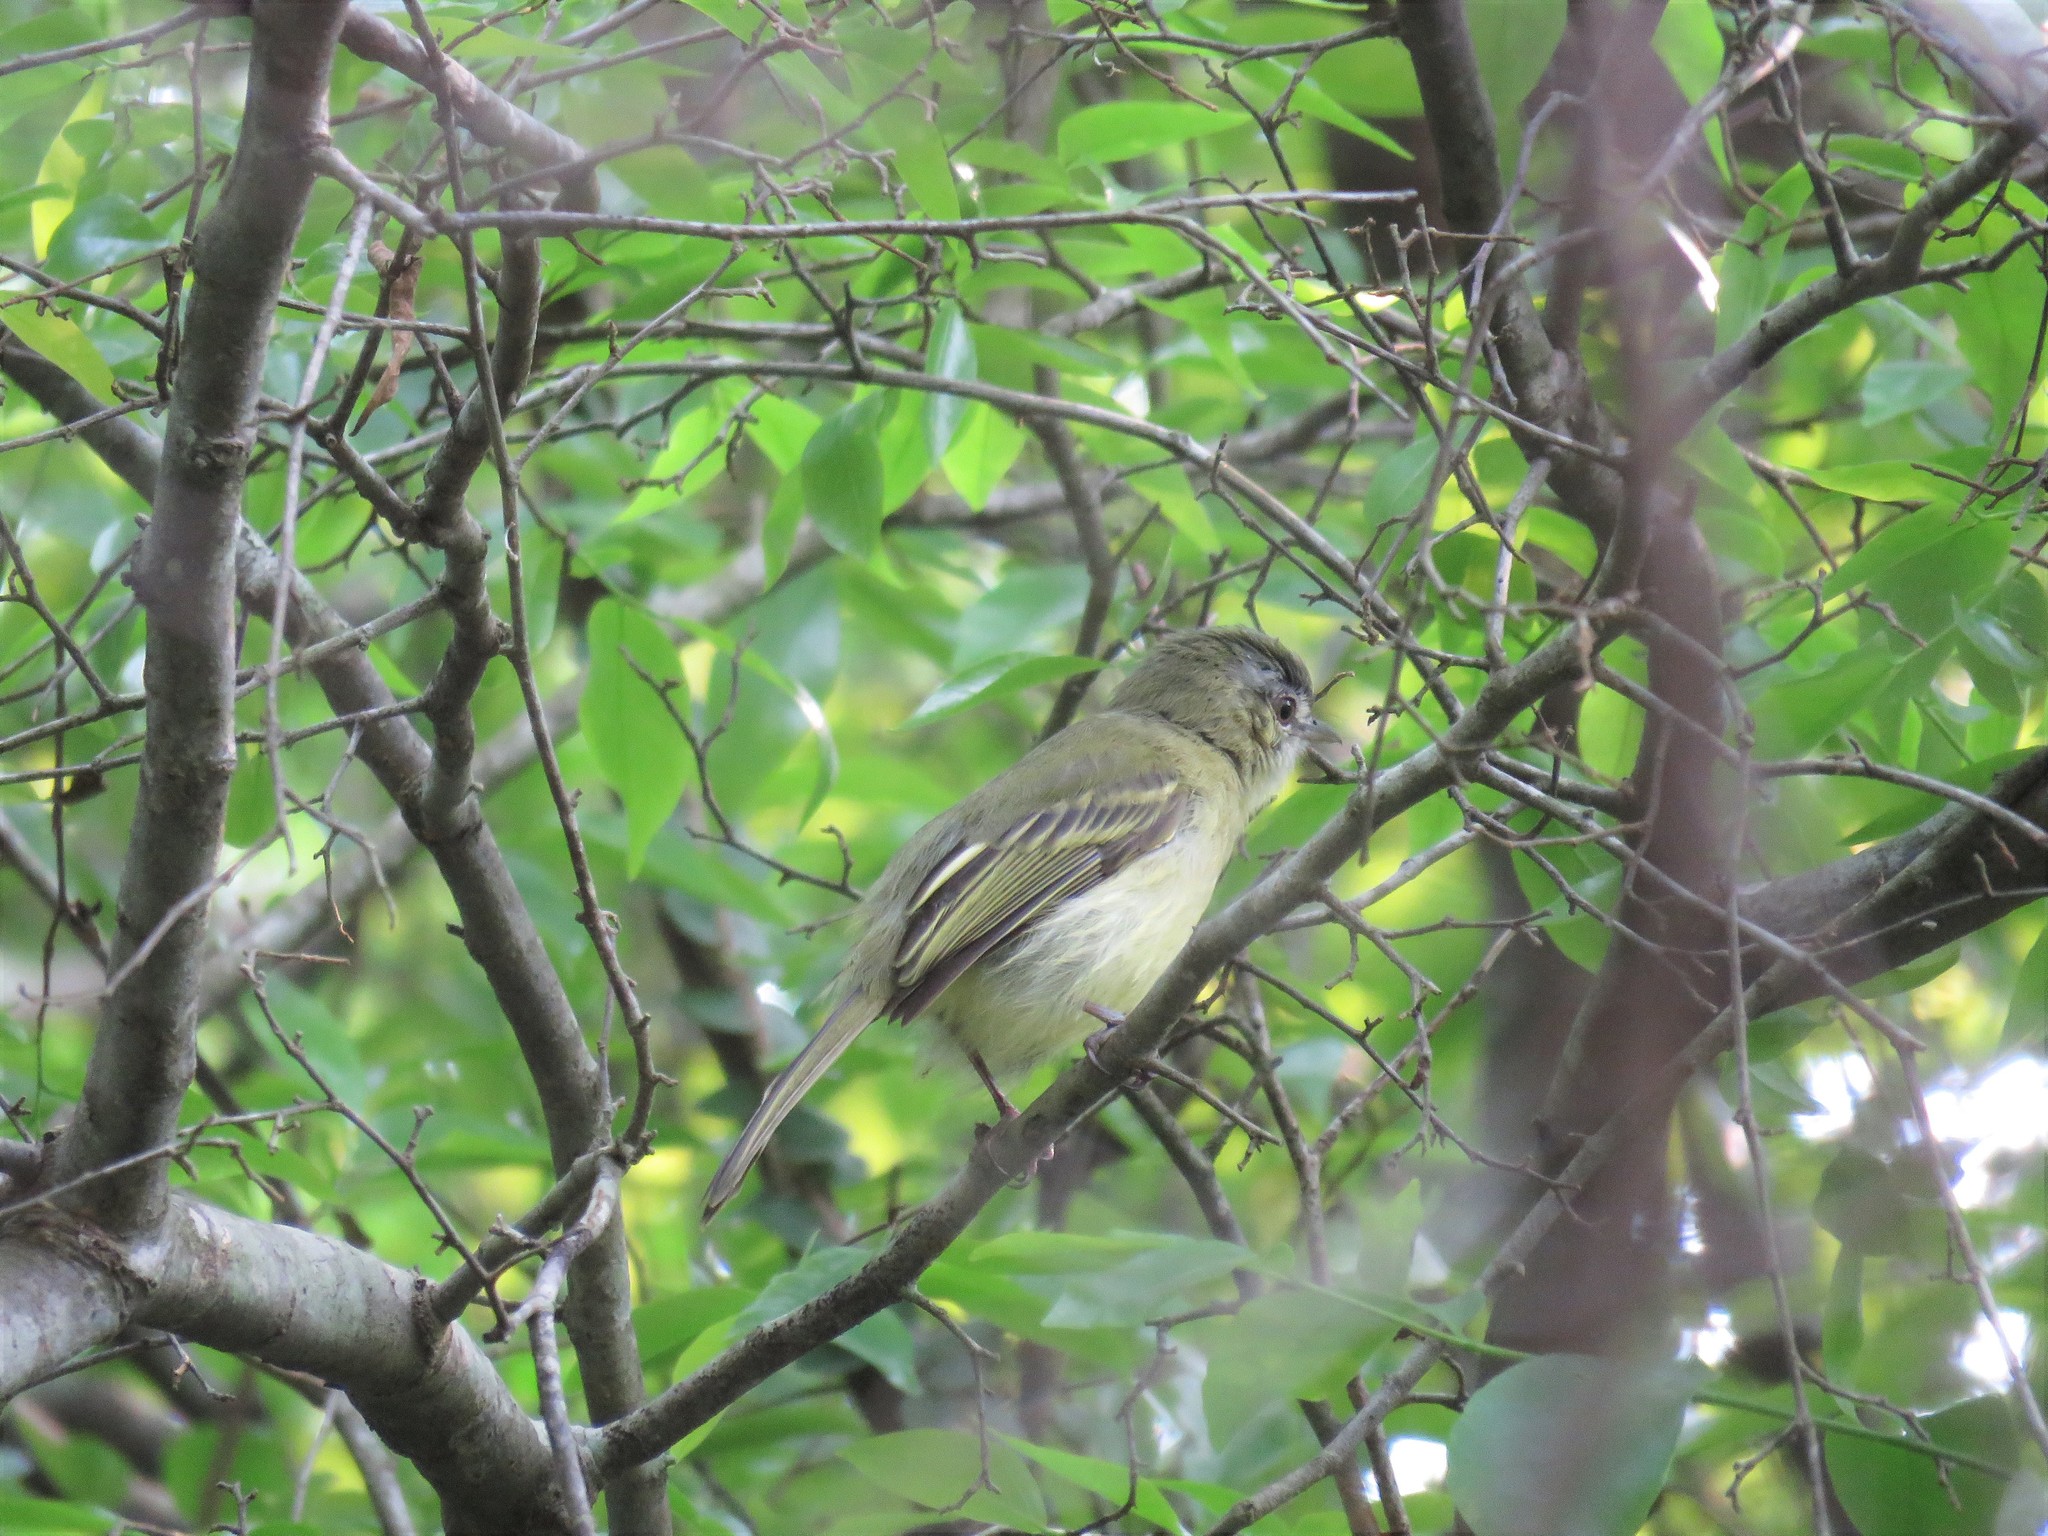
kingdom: Animalia
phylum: Chordata
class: Aves
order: Passeriformes
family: Tyrannidae
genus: Tolmomyias
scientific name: Tolmomyias sulphurescens
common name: Yellow-olive flycatcher
